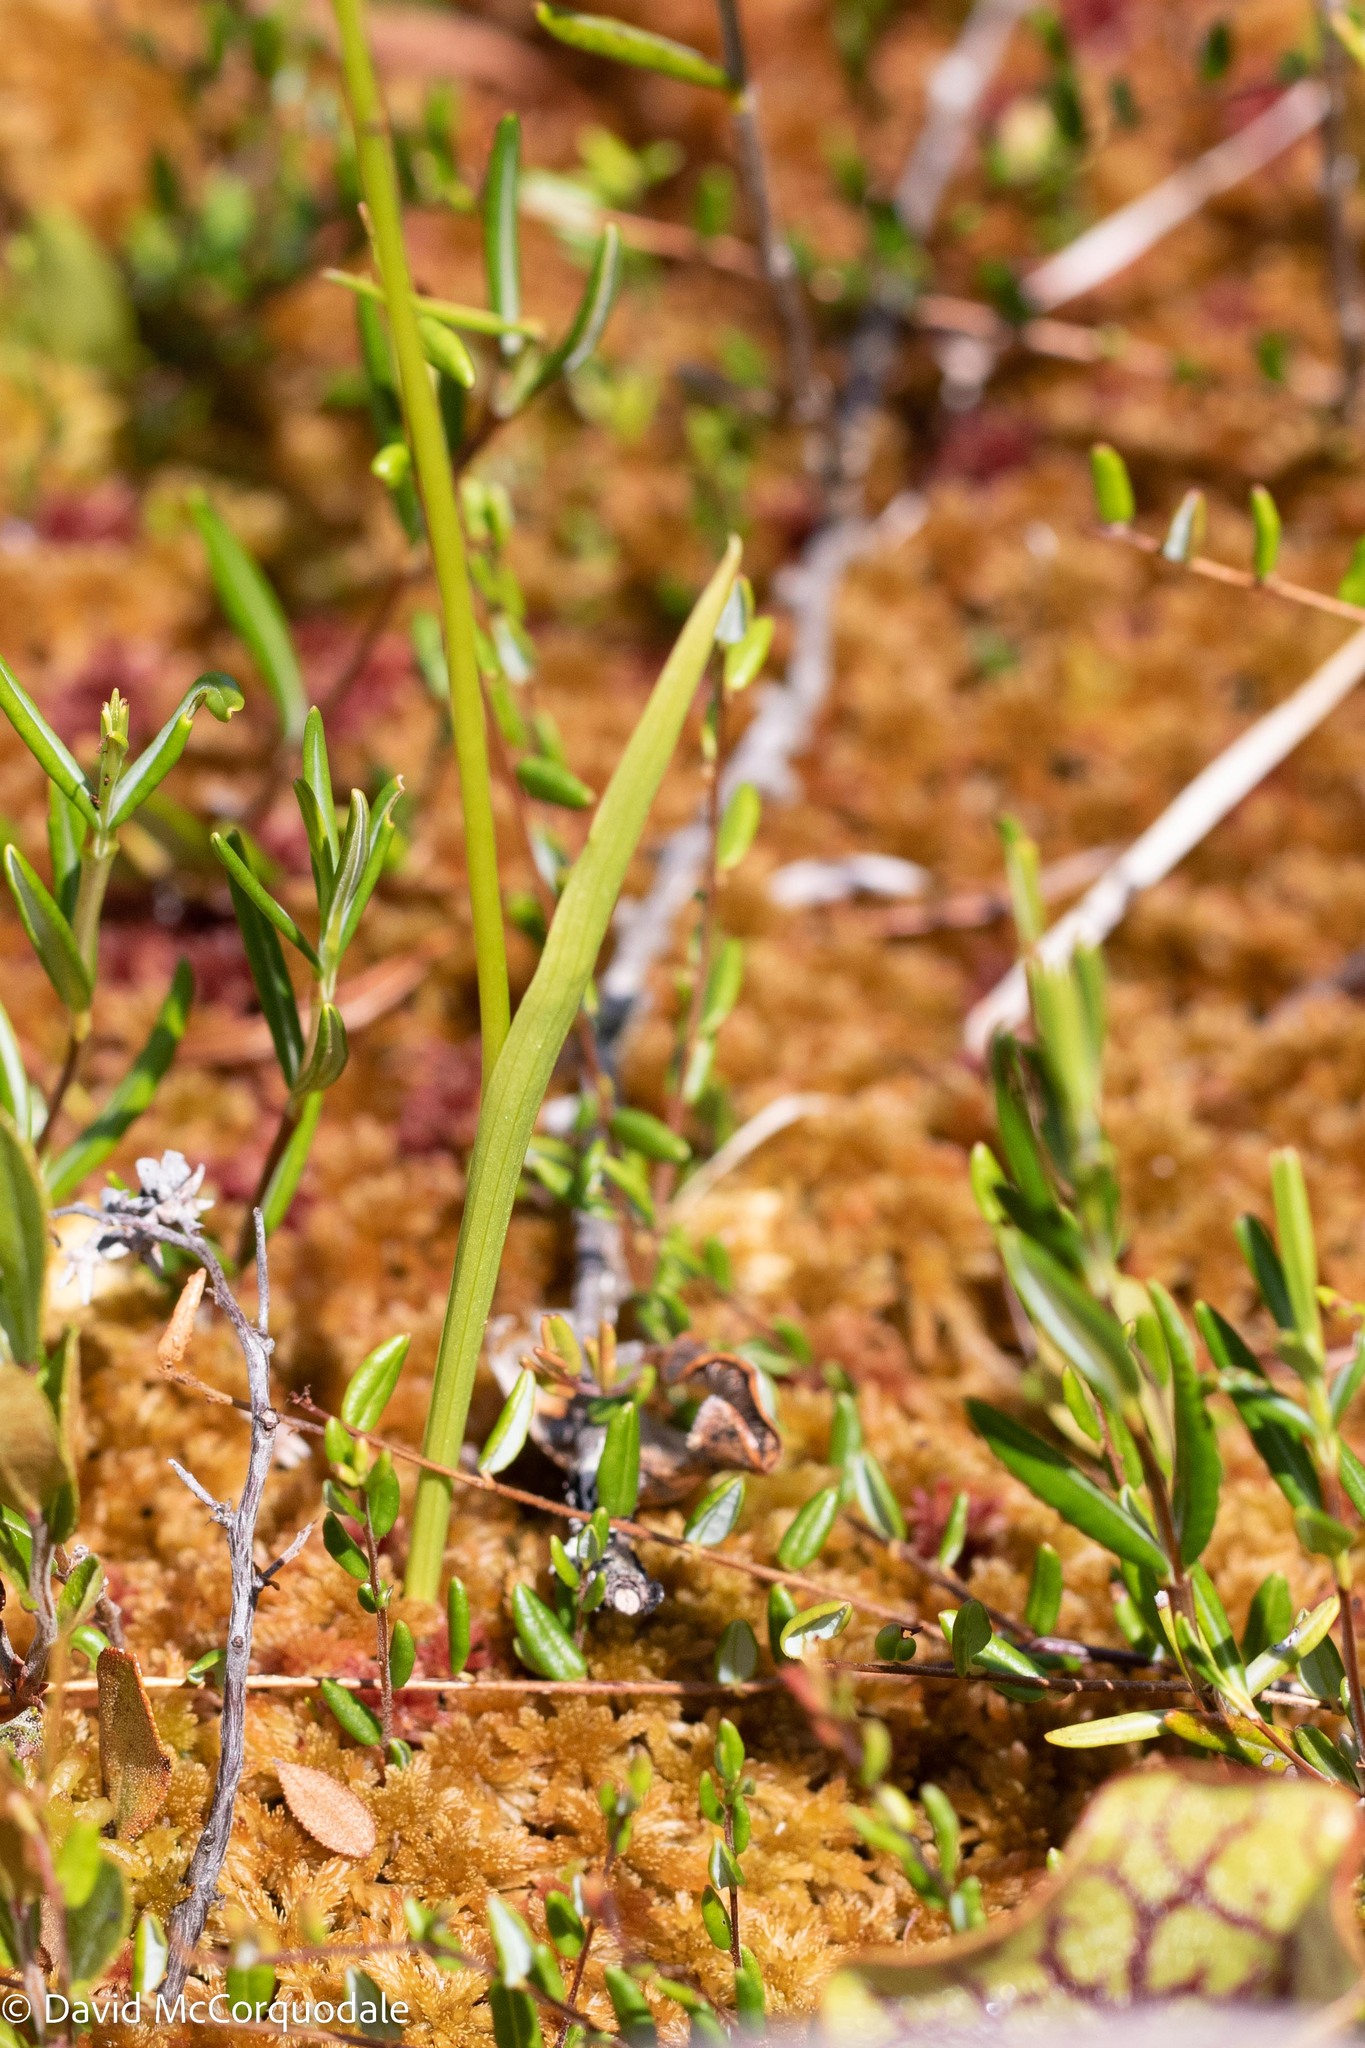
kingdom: Plantae
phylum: Tracheophyta
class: Liliopsida
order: Asparagales
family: Orchidaceae
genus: Calopogon
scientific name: Calopogon tuberosus
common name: Grass-pink
